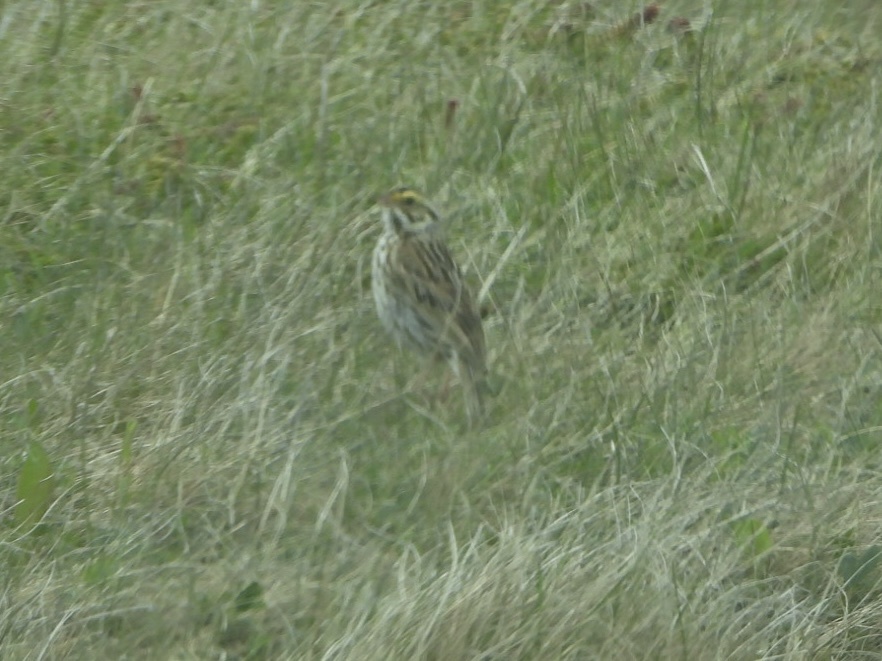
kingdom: Animalia
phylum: Chordata
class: Aves
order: Passeriformes
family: Passerellidae
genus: Passerculus
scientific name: Passerculus sandwichensis
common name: Savannah sparrow
